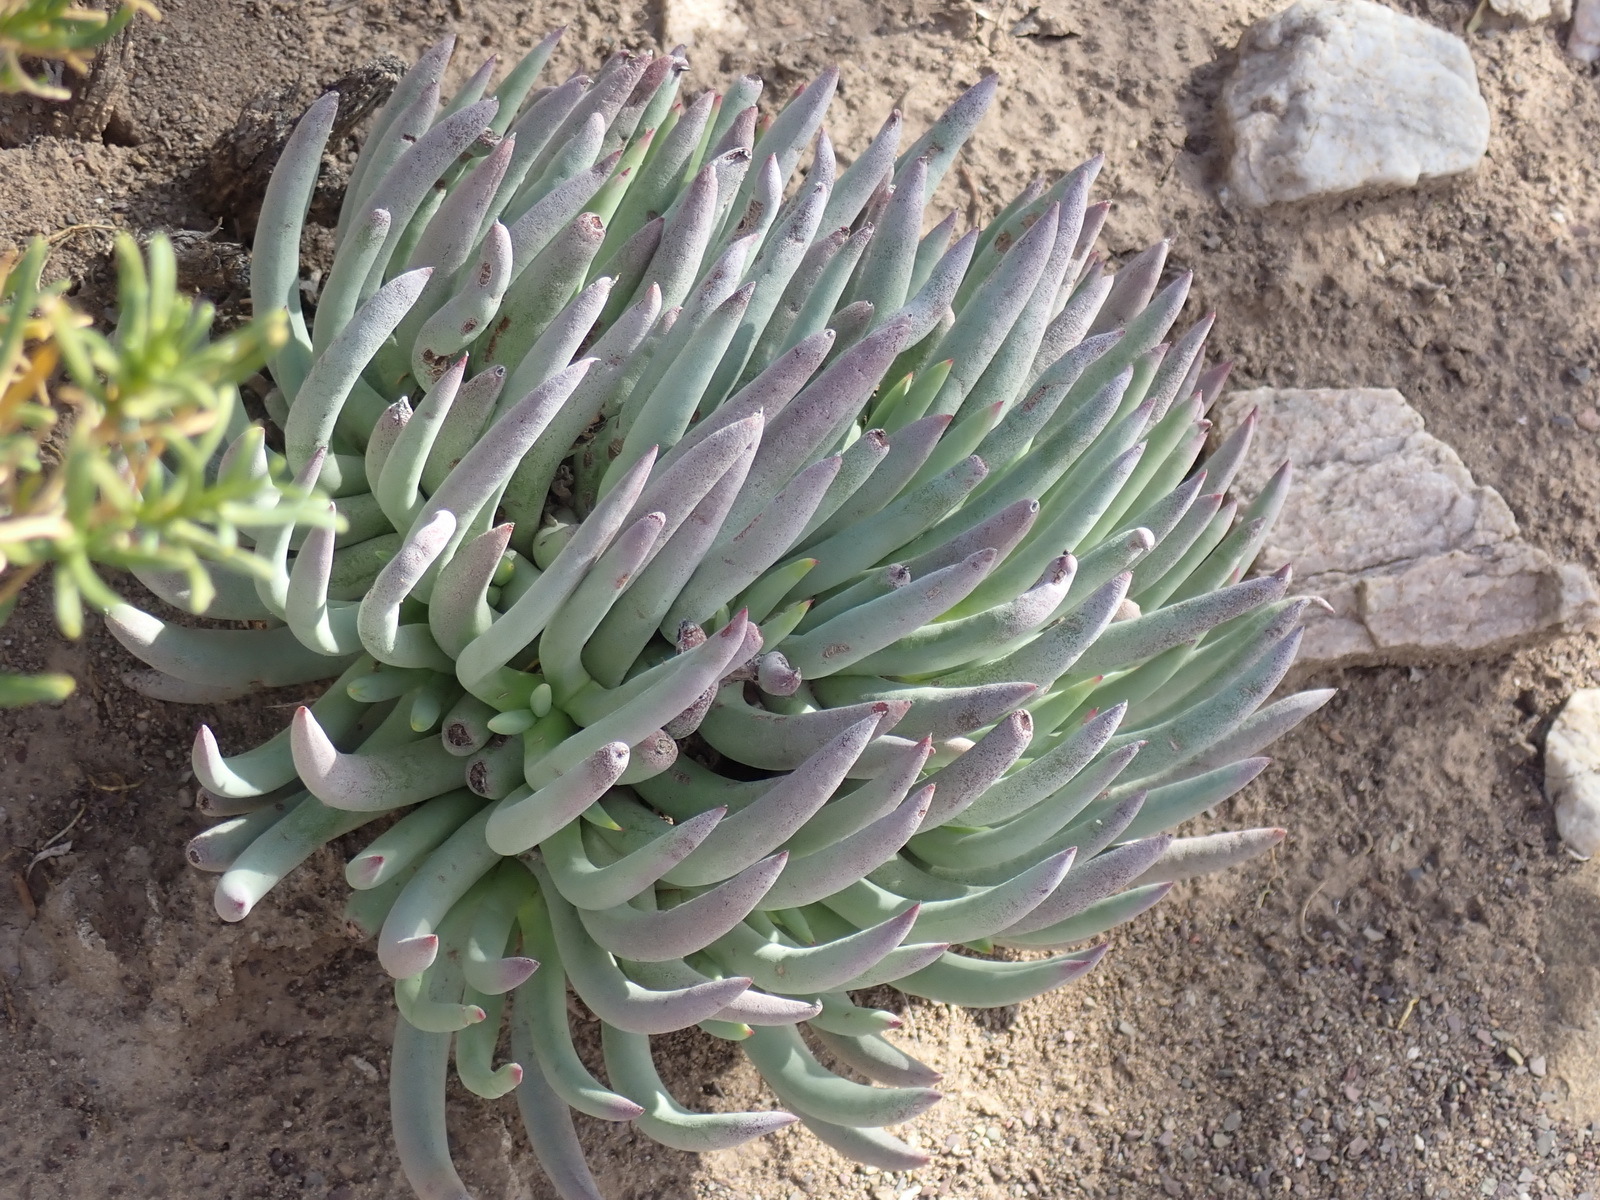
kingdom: Plantae
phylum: Tracheophyta
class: Magnoliopsida
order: Caryophyllales
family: Aizoaceae
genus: Cylindrophyllum
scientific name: Cylindrophyllum tugwelliae
